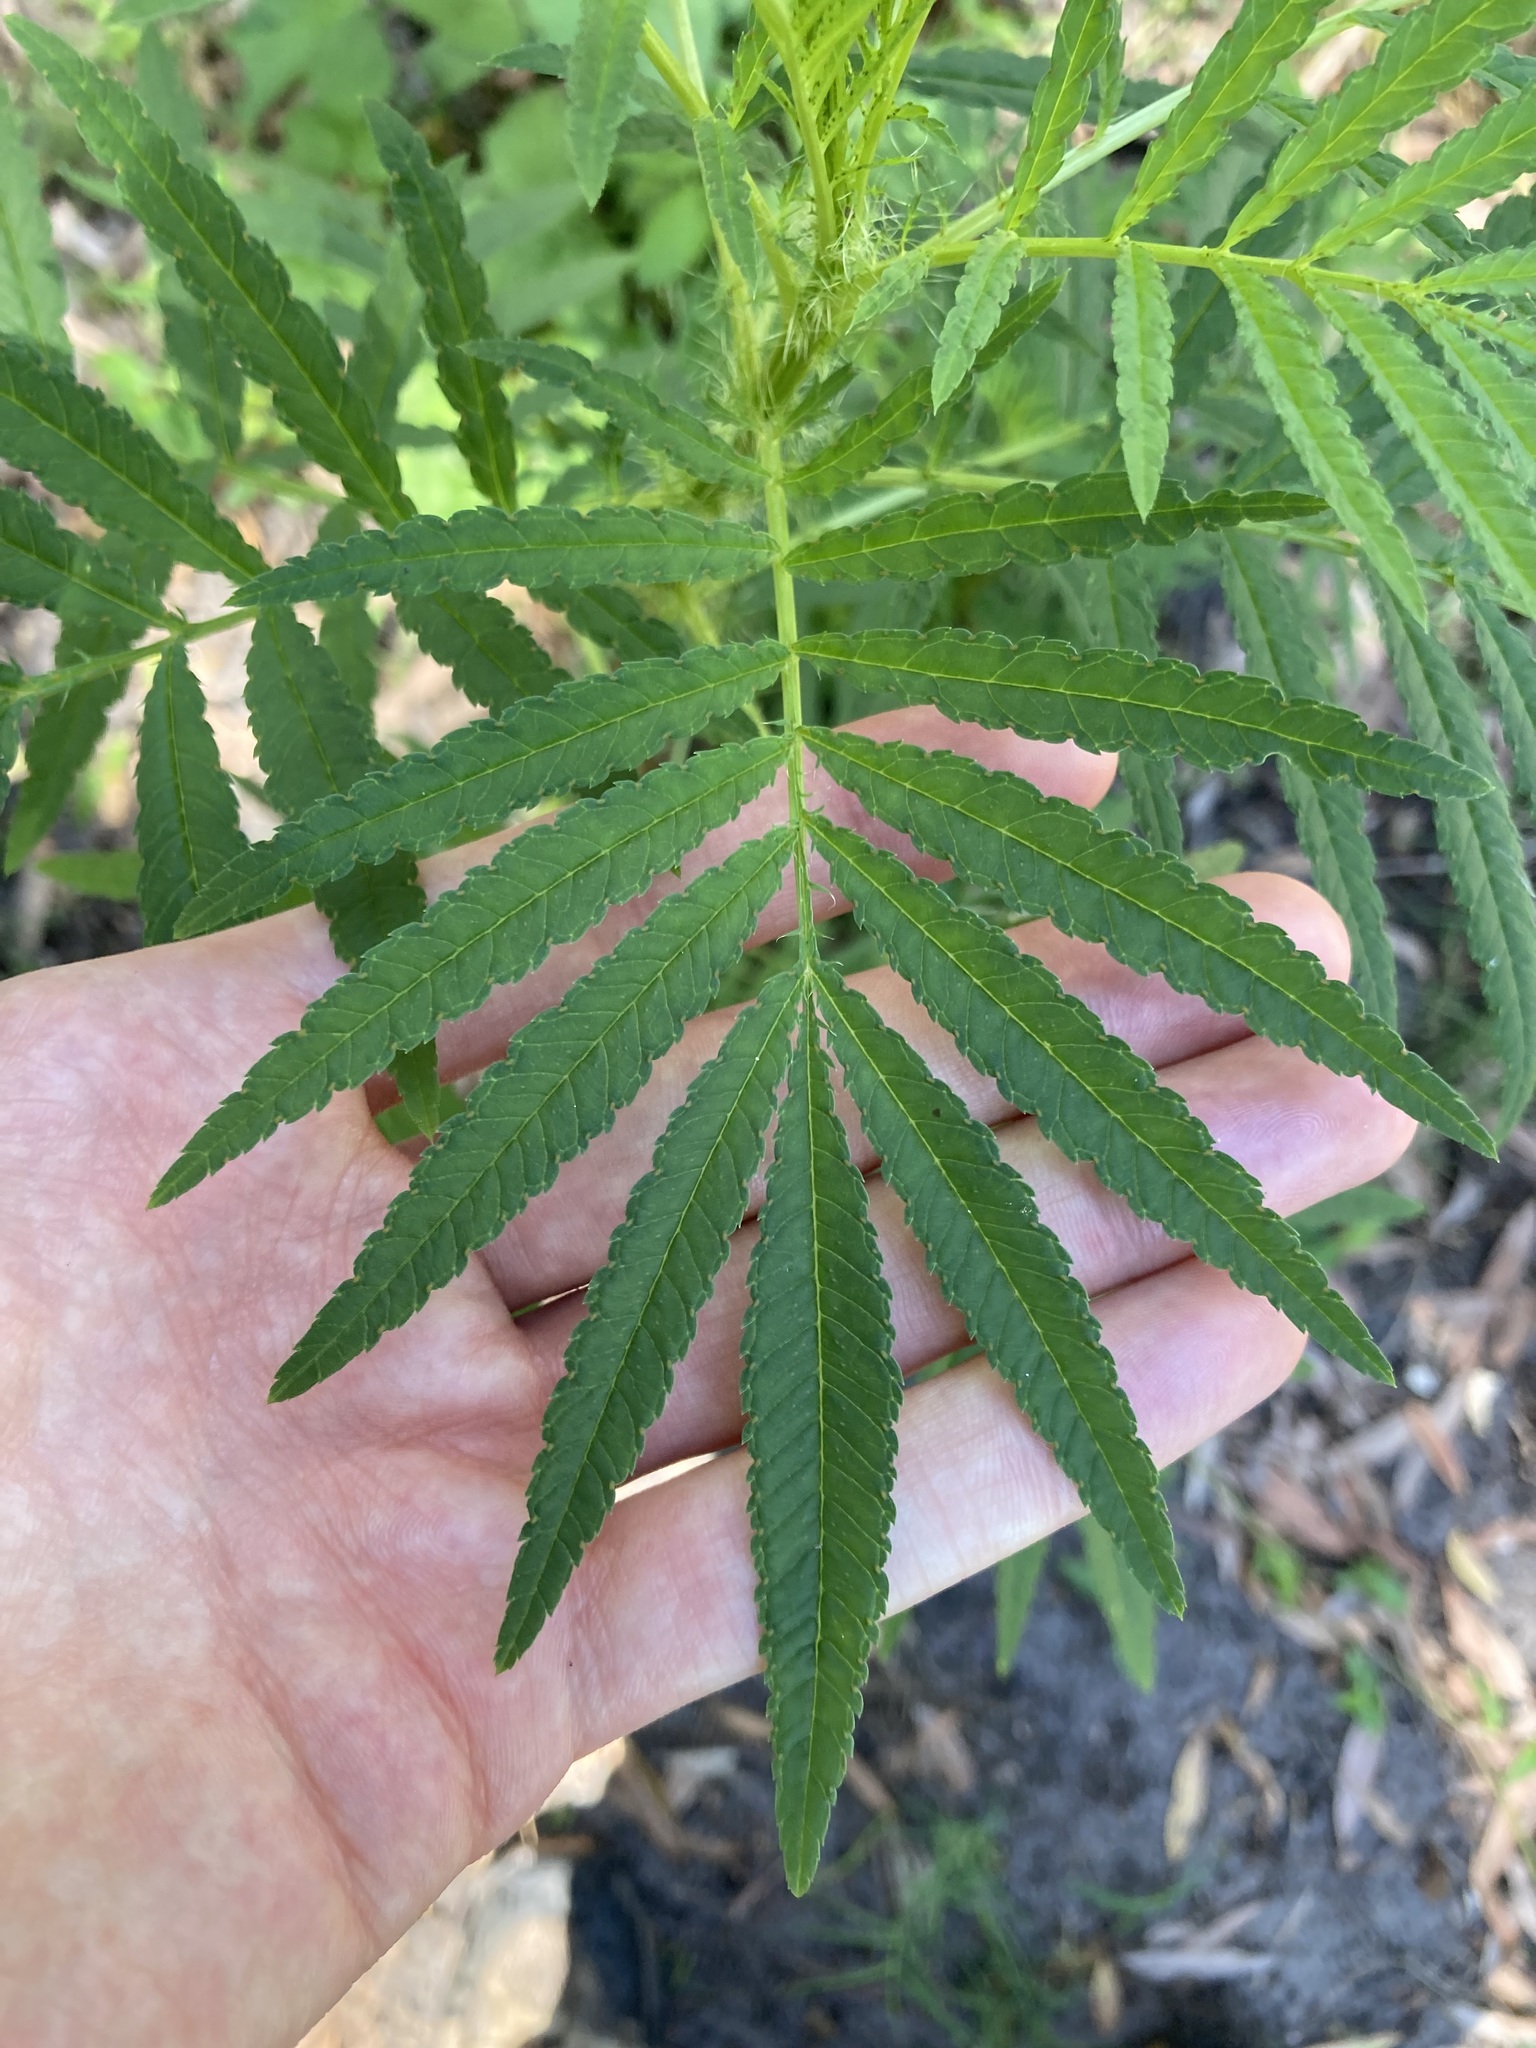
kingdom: Plantae
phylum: Tracheophyta
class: Magnoliopsida
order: Asterales
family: Asteraceae
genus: Tagetes
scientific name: Tagetes minuta
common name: Muster john henry
